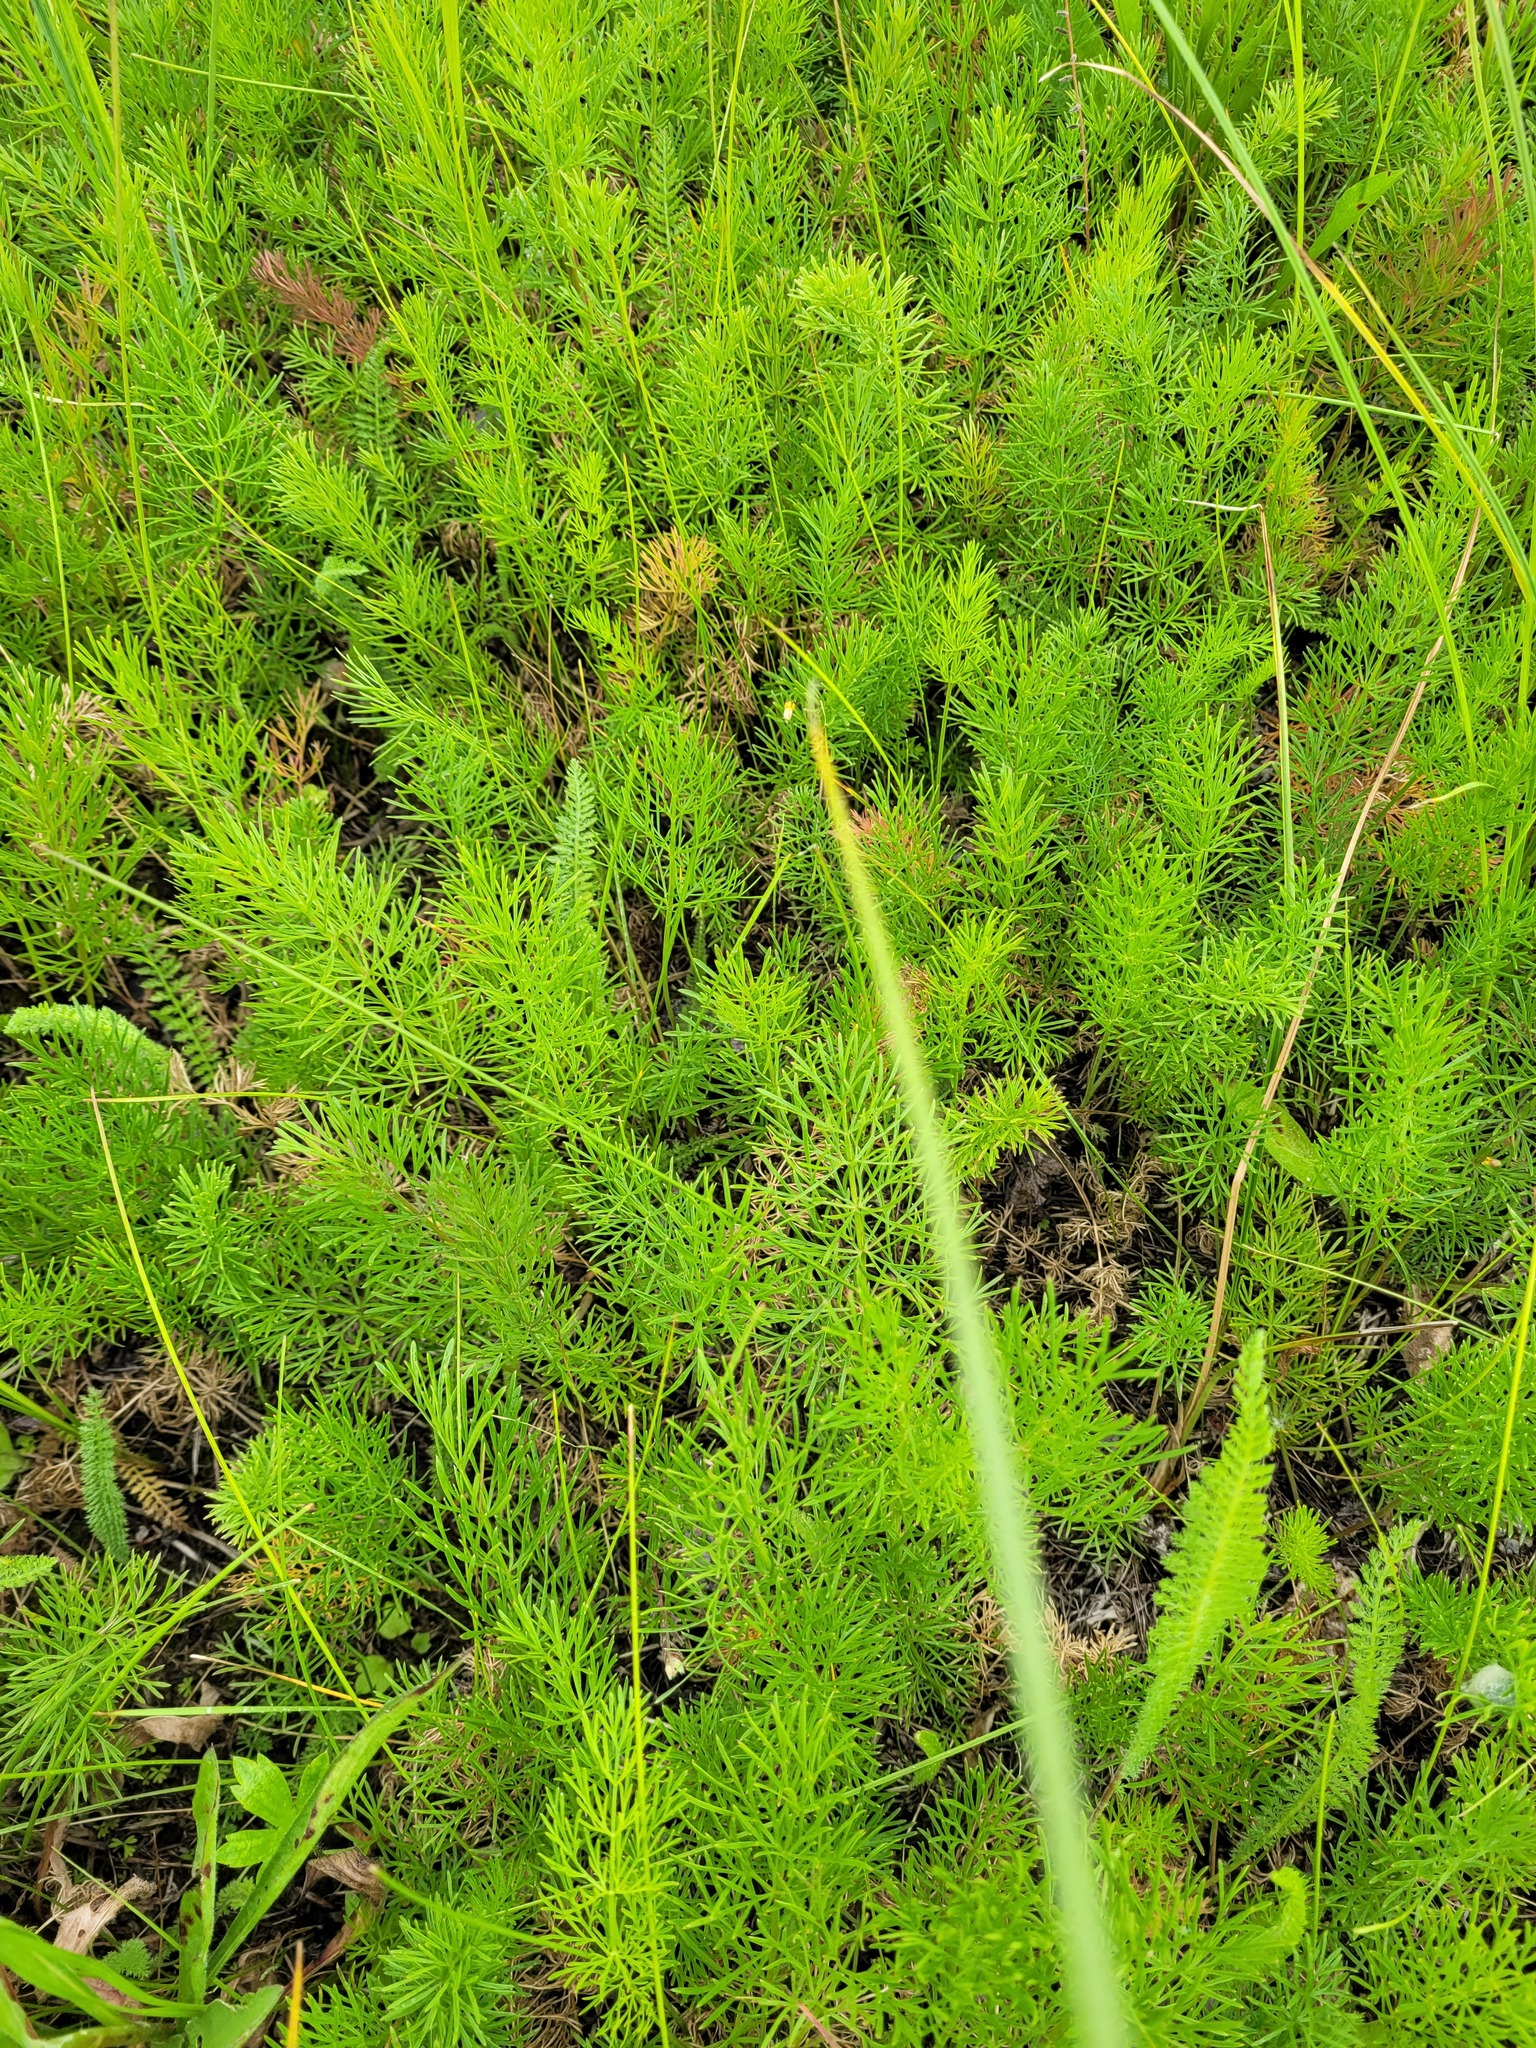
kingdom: Plantae
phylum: Tracheophyta
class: Magnoliopsida
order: Apiales
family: Apiaceae
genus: Seseli
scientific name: Seseli annuum
